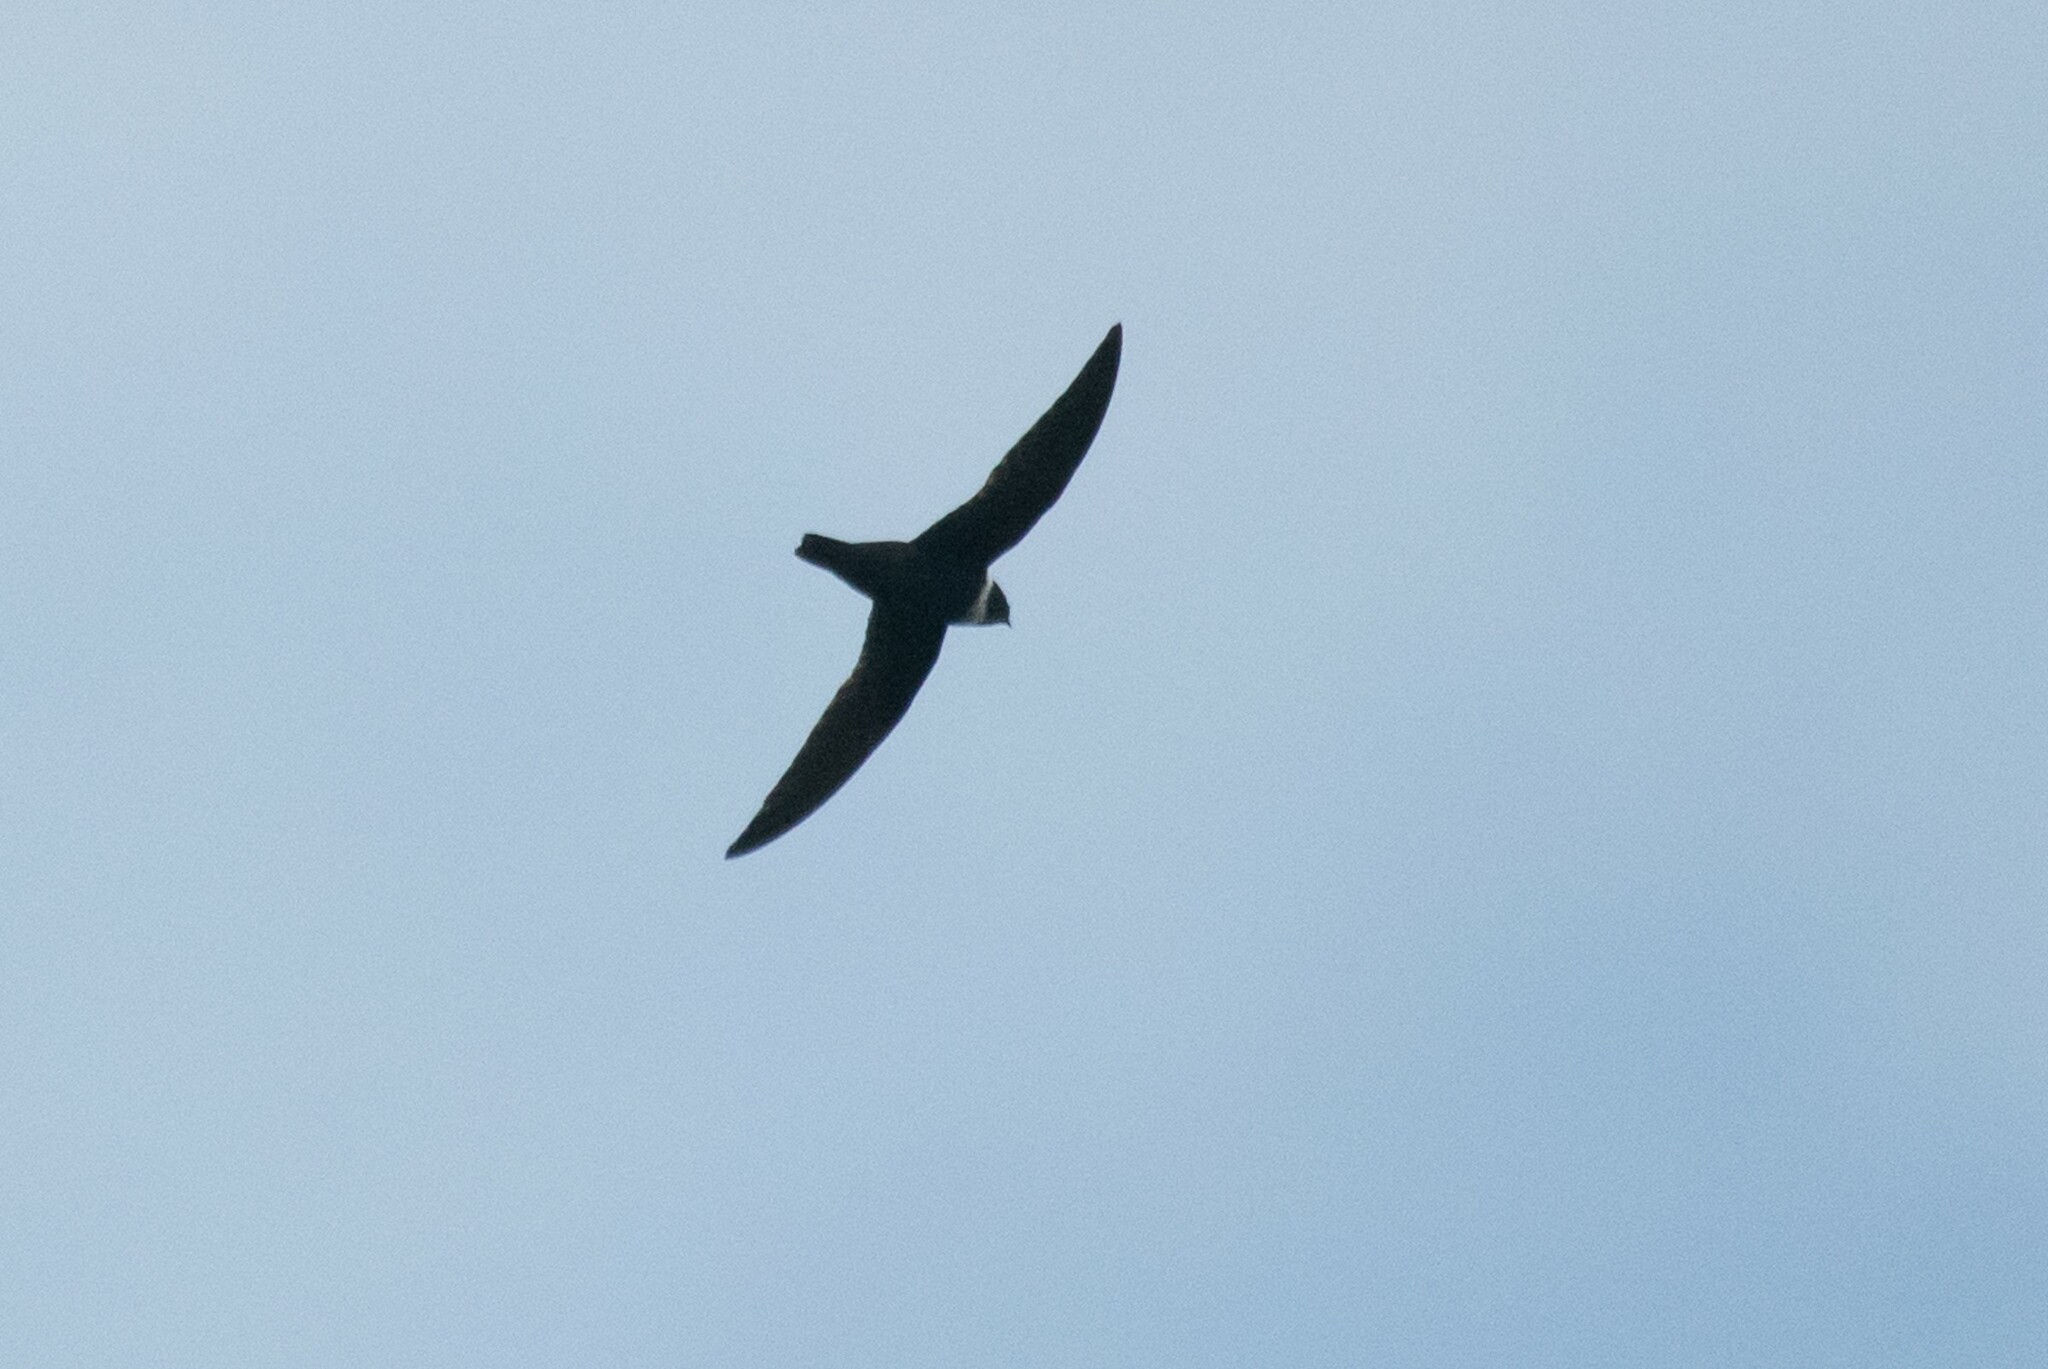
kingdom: Animalia
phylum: Chordata
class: Aves
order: Apodiformes
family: Apodidae
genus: Streptoprocne
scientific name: Streptoprocne zonaris
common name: White-collared swift
